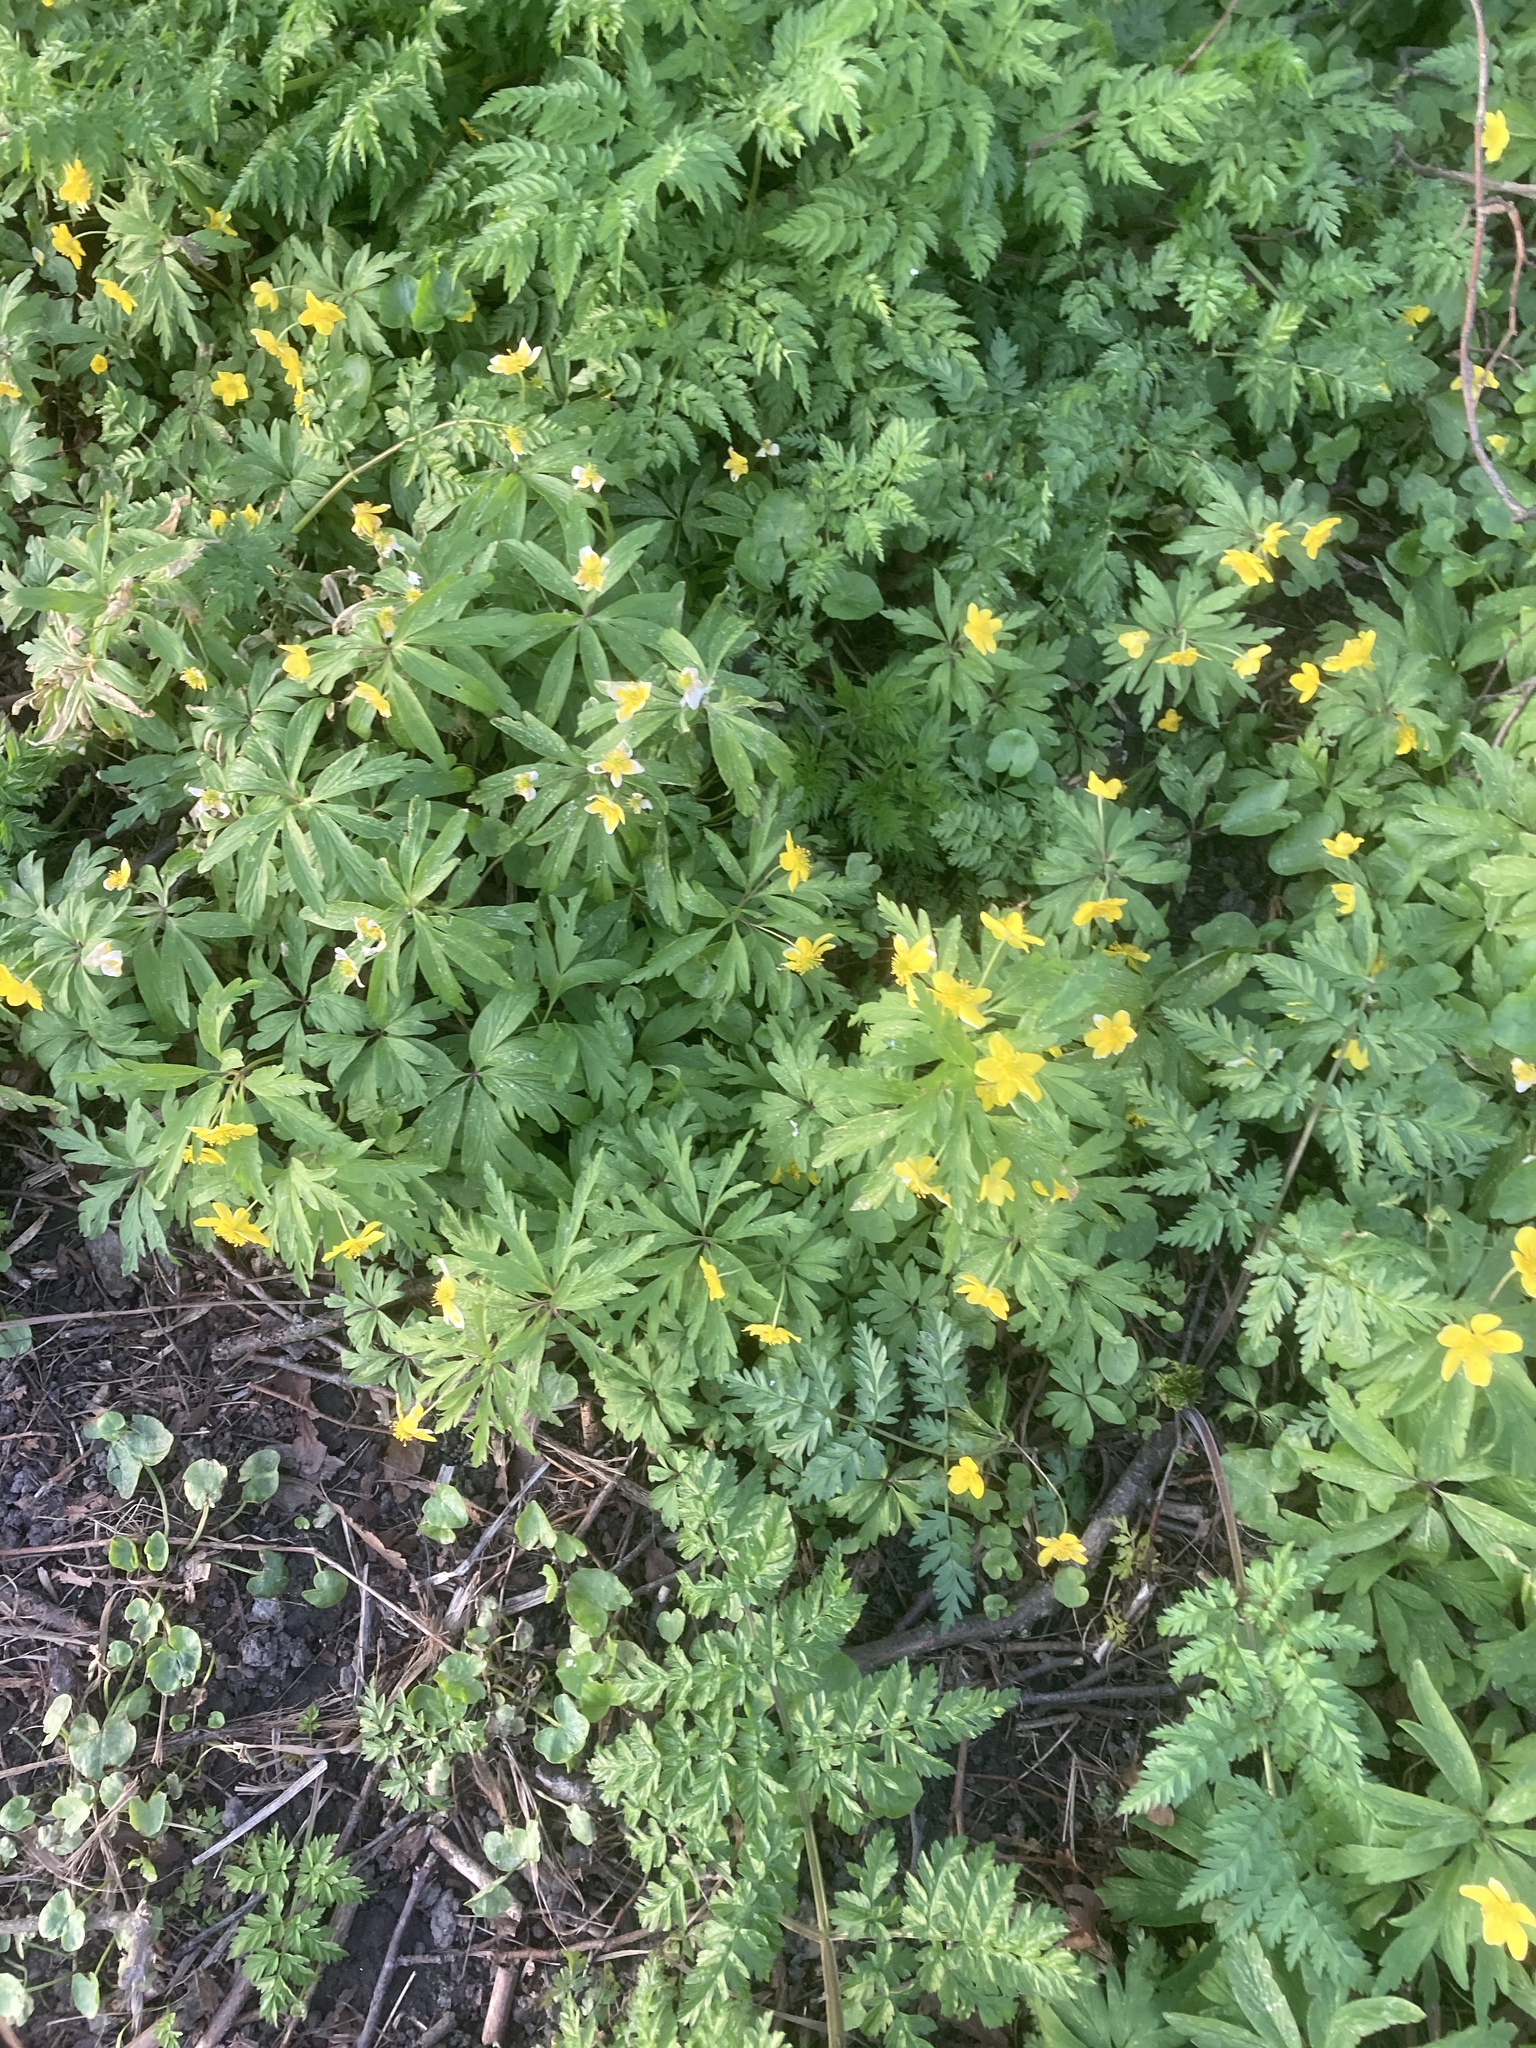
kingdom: Plantae
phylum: Tracheophyta
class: Magnoliopsida
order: Ranunculales
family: Ranunculaceae
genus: Anemone
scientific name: Anemone ranunculoides
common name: Yellow anemone
